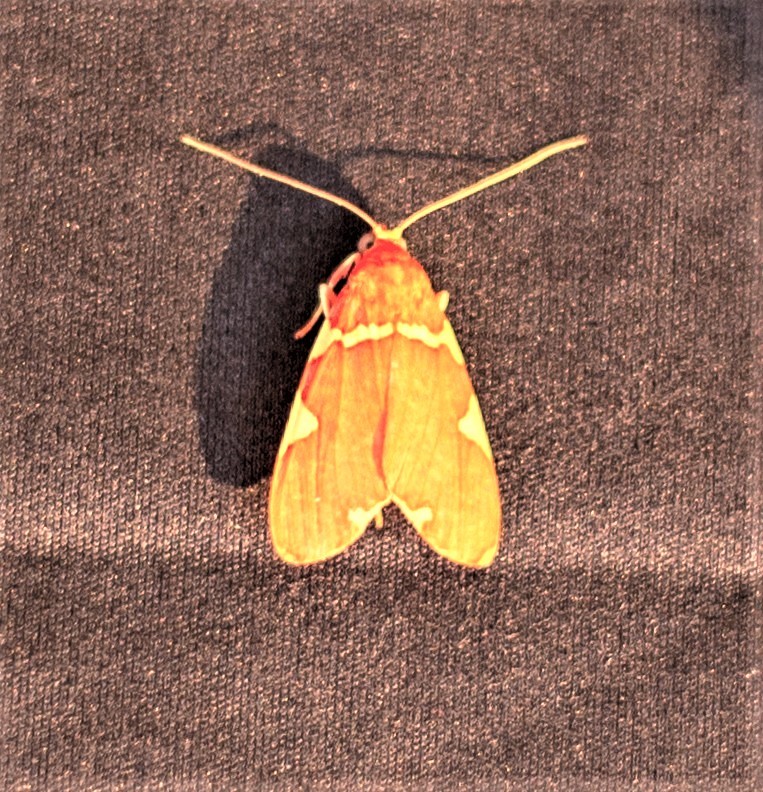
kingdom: Animalia
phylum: Arthropoda
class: Insecta
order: Lepidoptera
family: Erebidae
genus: Neritos
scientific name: Neritos cardinalis
